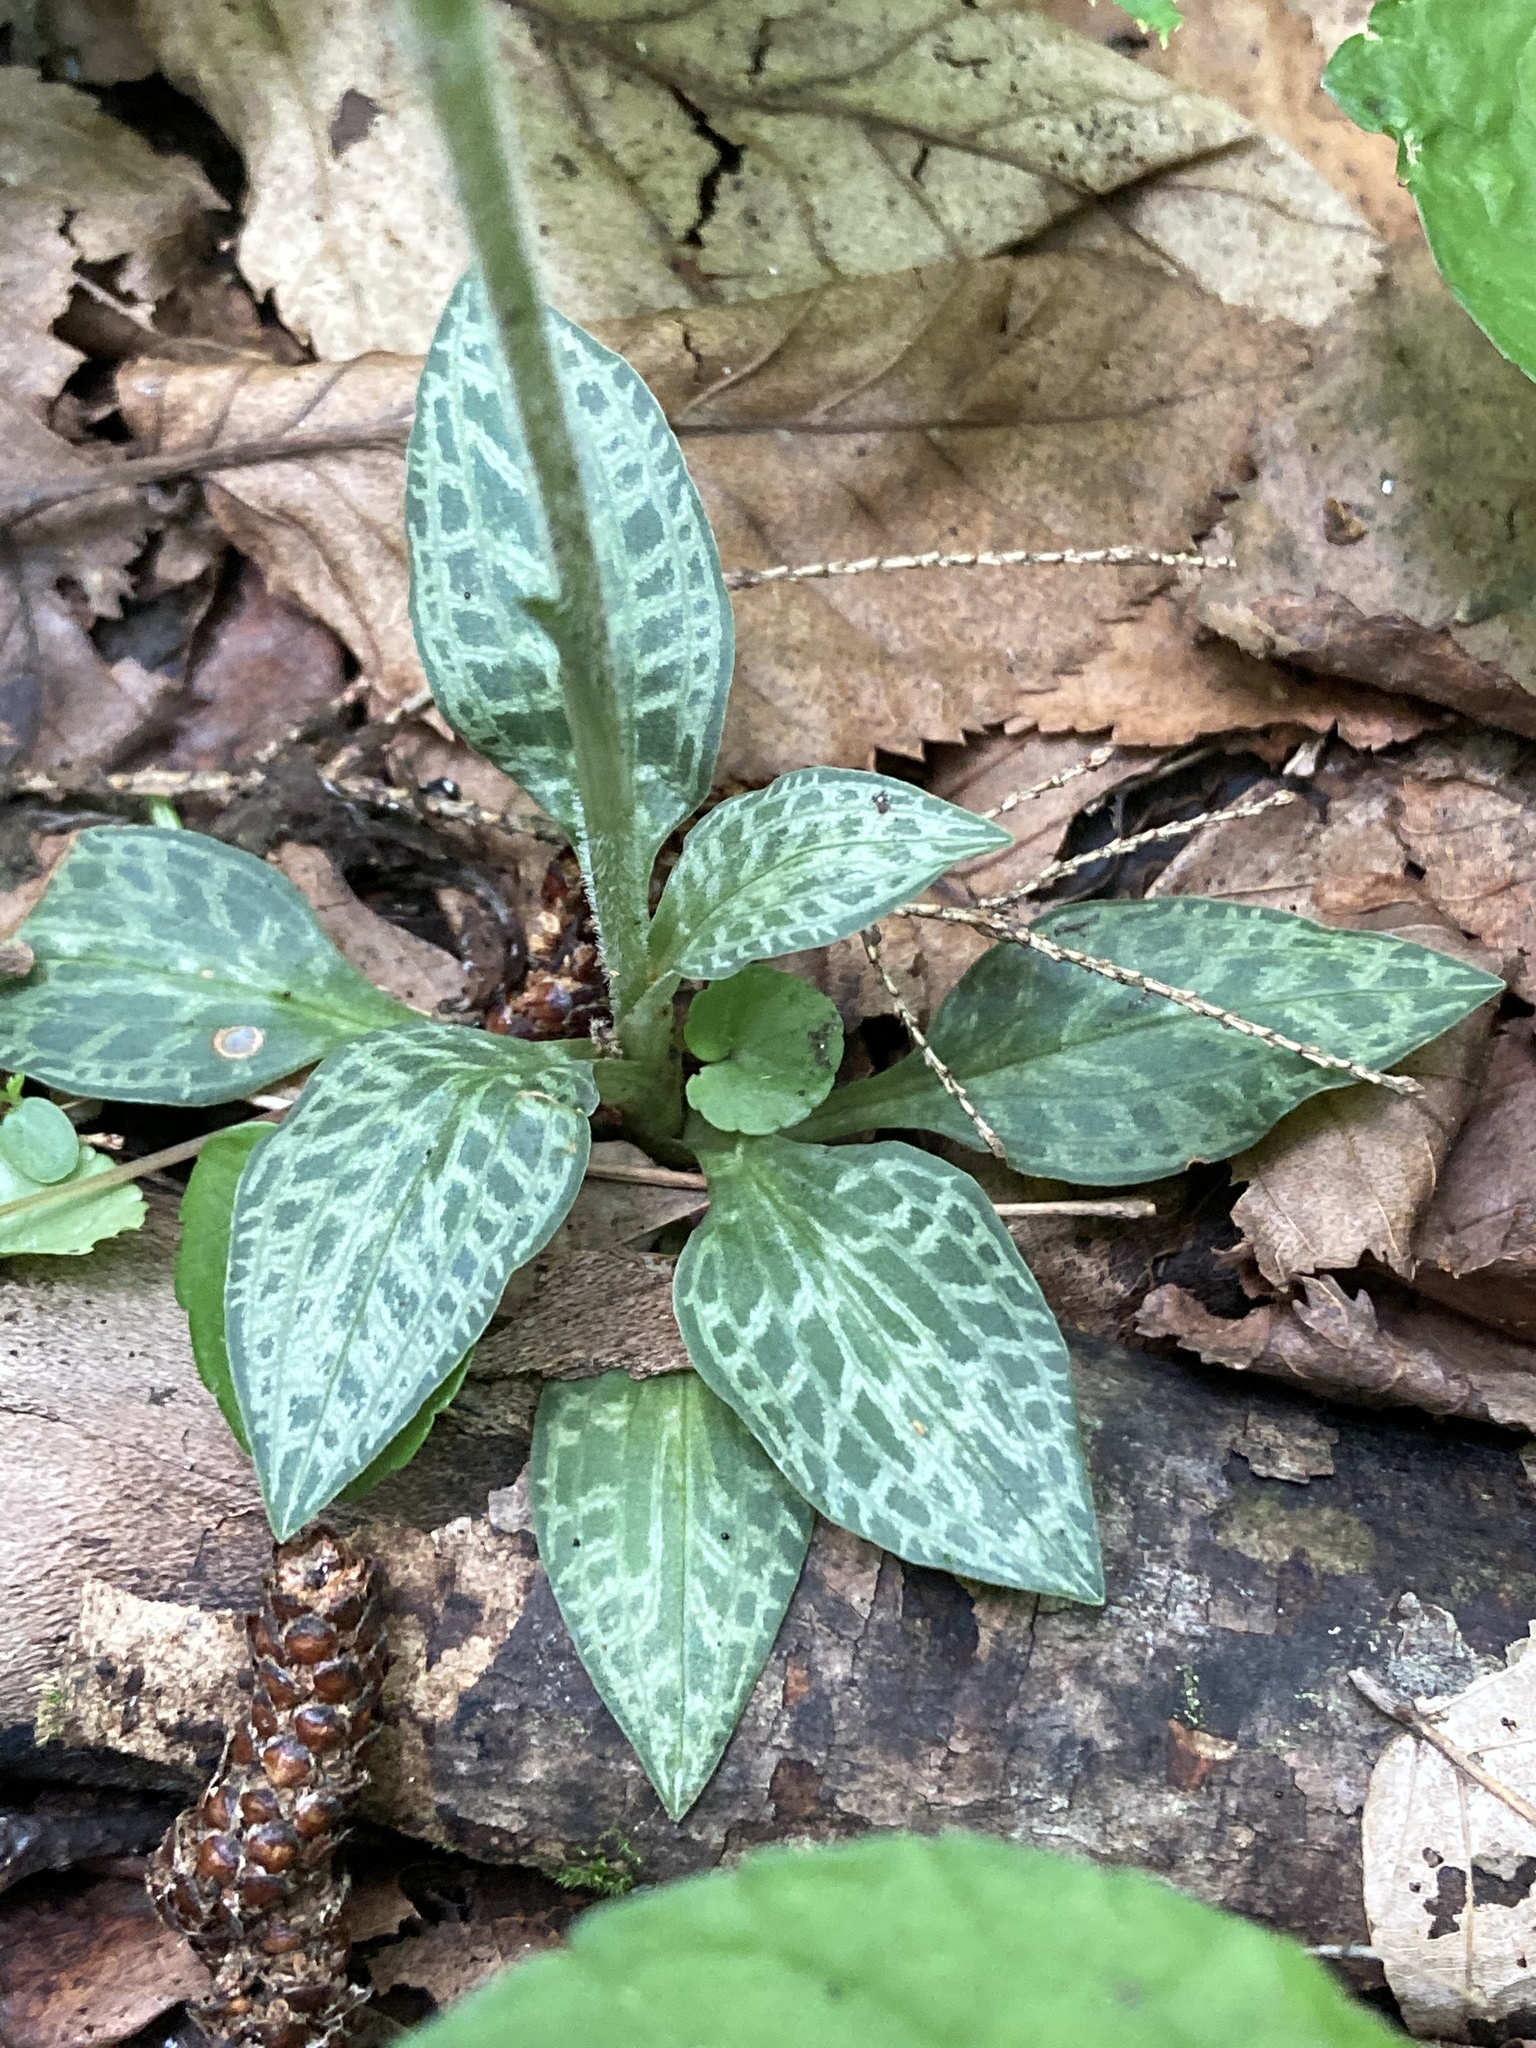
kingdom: Plantae
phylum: Tracheophyta
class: Liliopsida
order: Asparagales
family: Orchidaceae
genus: Goodyera
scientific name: Goodyera tesselata
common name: Checkered rattlesnake-plantain
